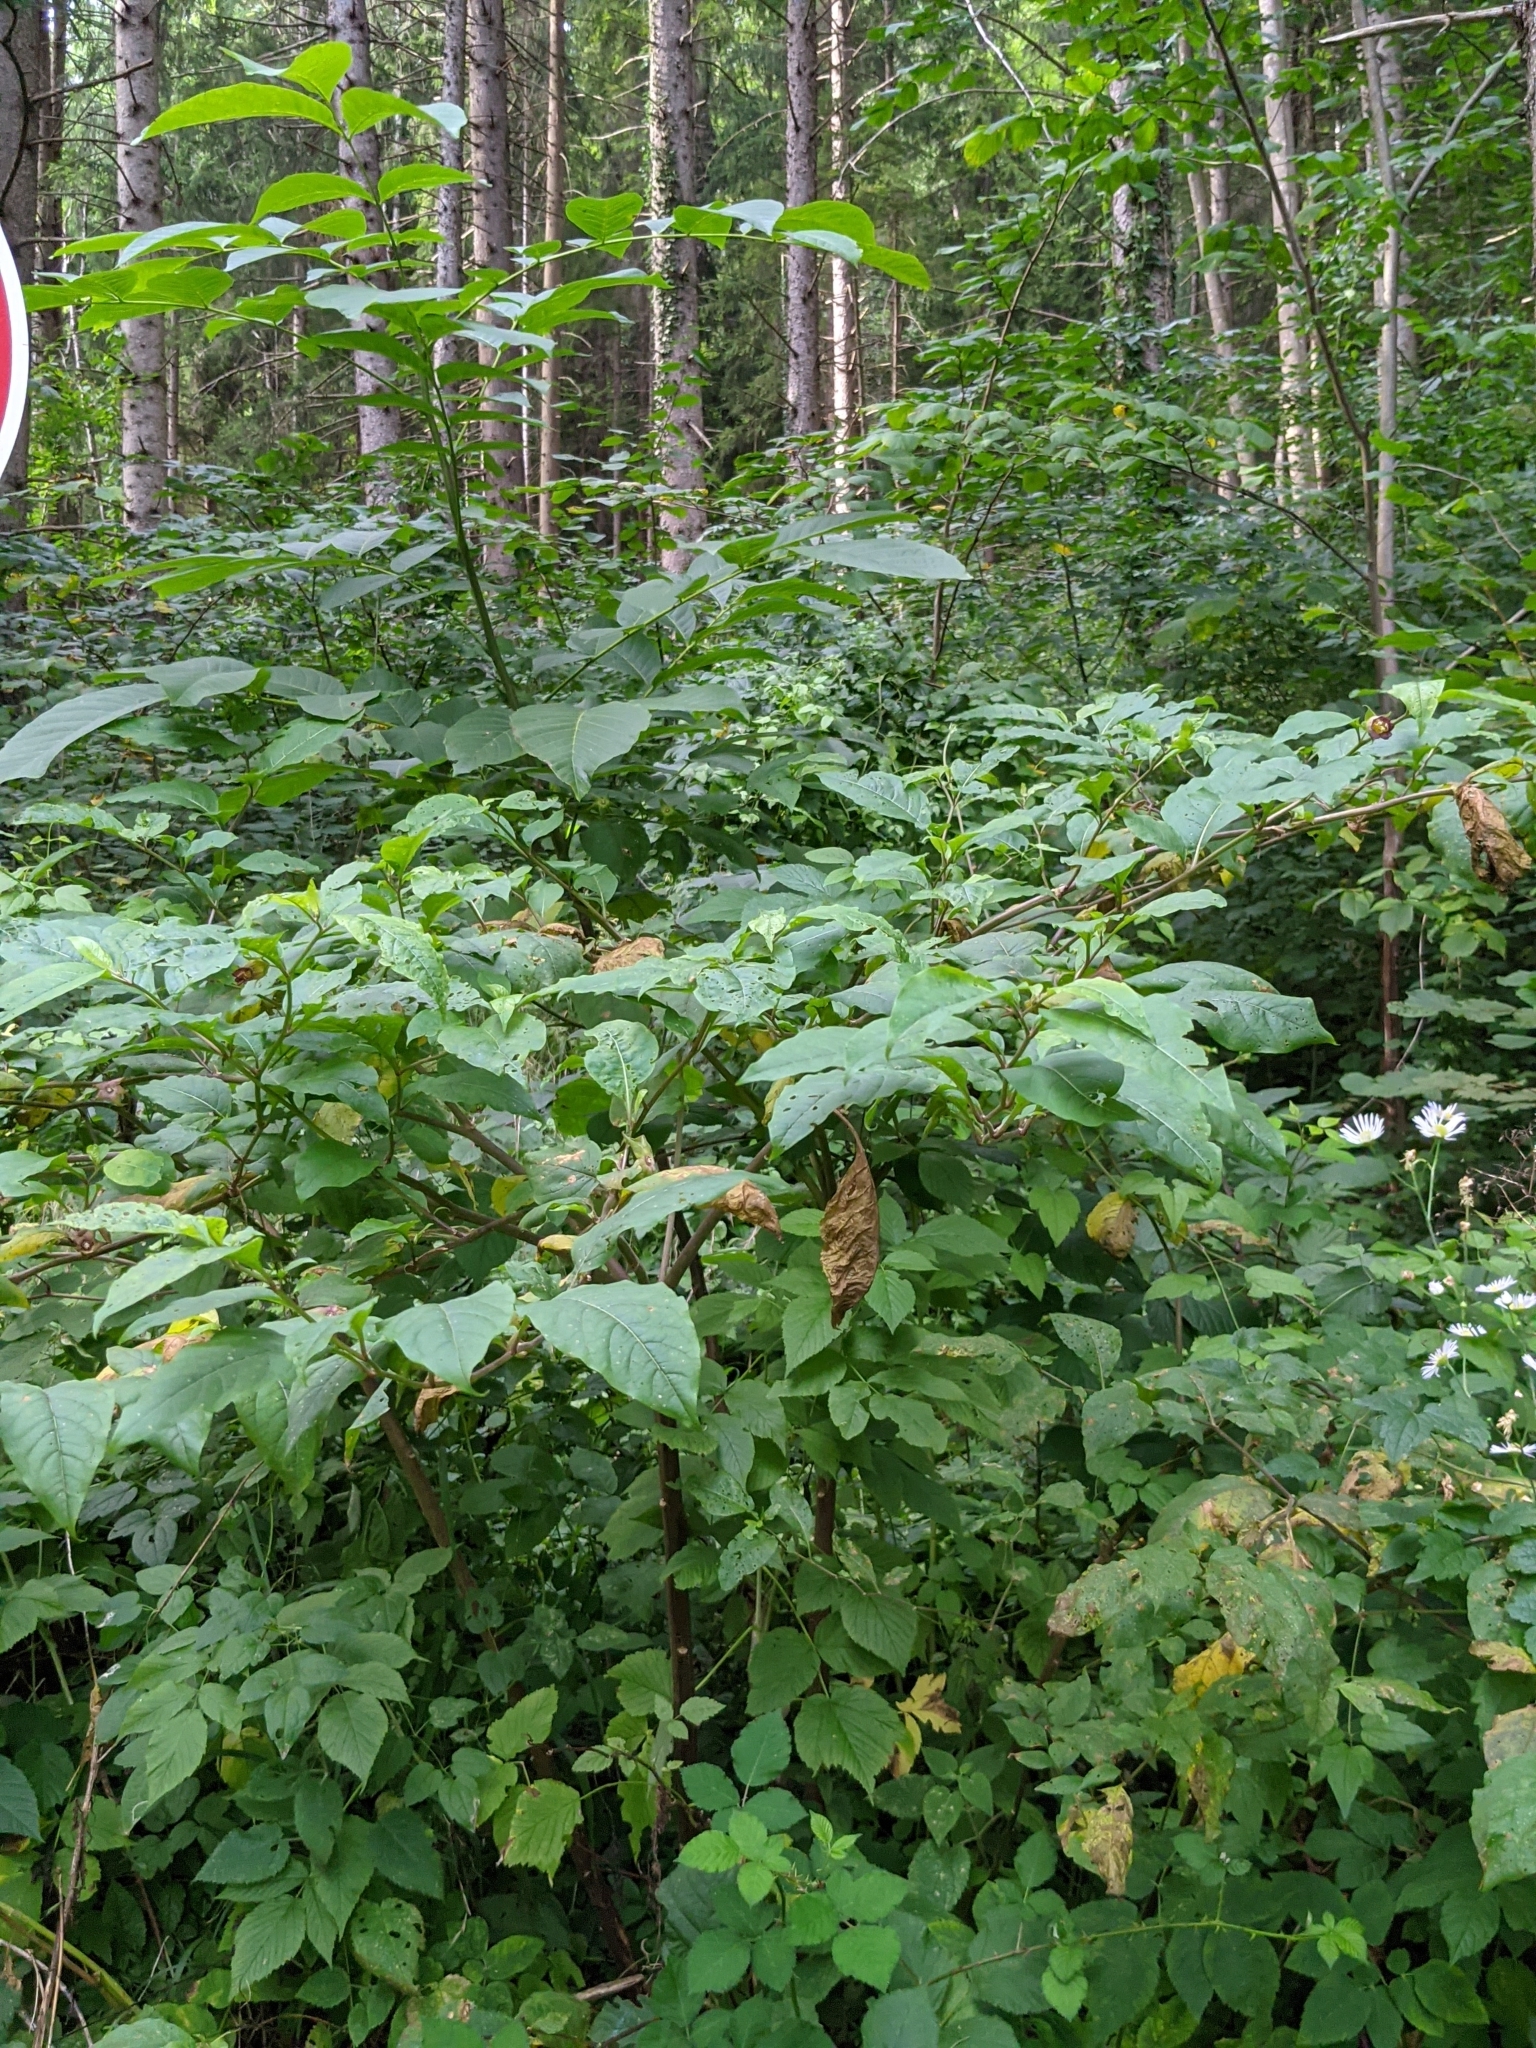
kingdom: Plantae
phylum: Tracheophyta
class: Magnoliopsida
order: Solanales
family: Solanaceae
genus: Atropa
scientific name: Atropa belladonna
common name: Deadly nightshade
